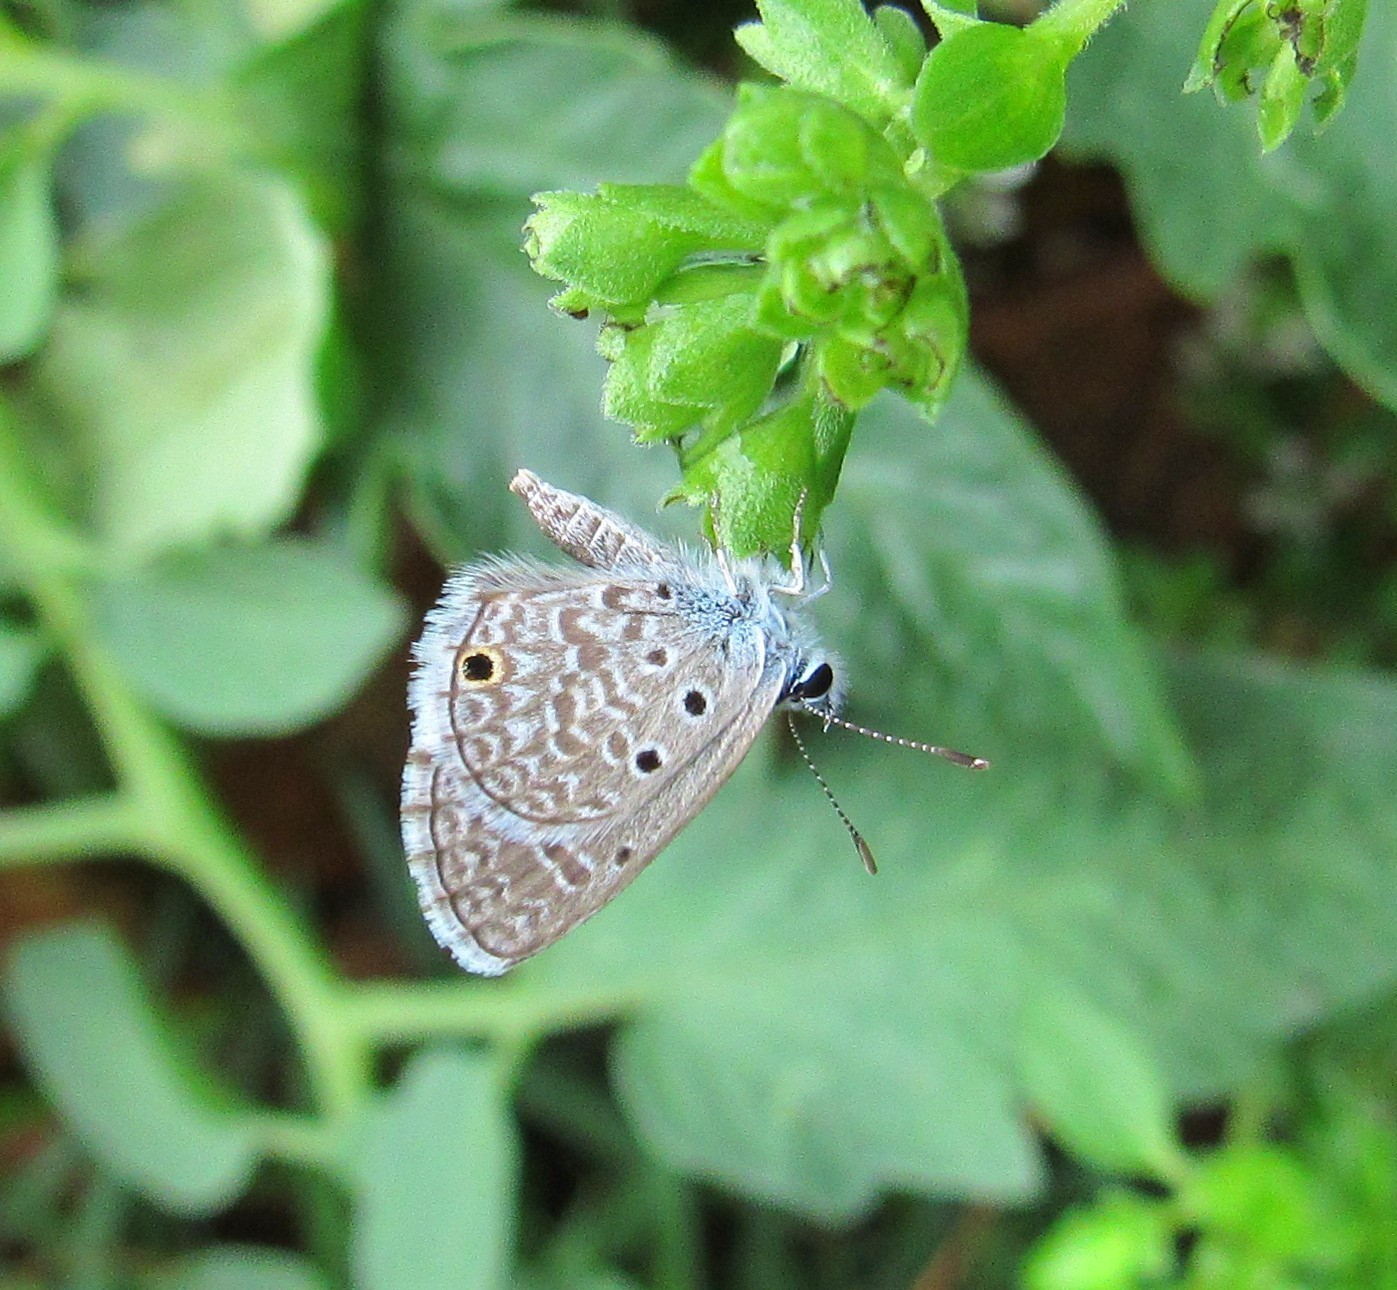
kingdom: Animalia
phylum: Arthropoda
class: Insecta
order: Lepidoptera
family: Lycaenidae
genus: Hemiargus
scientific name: Hemiargus hanno
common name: Common blue
